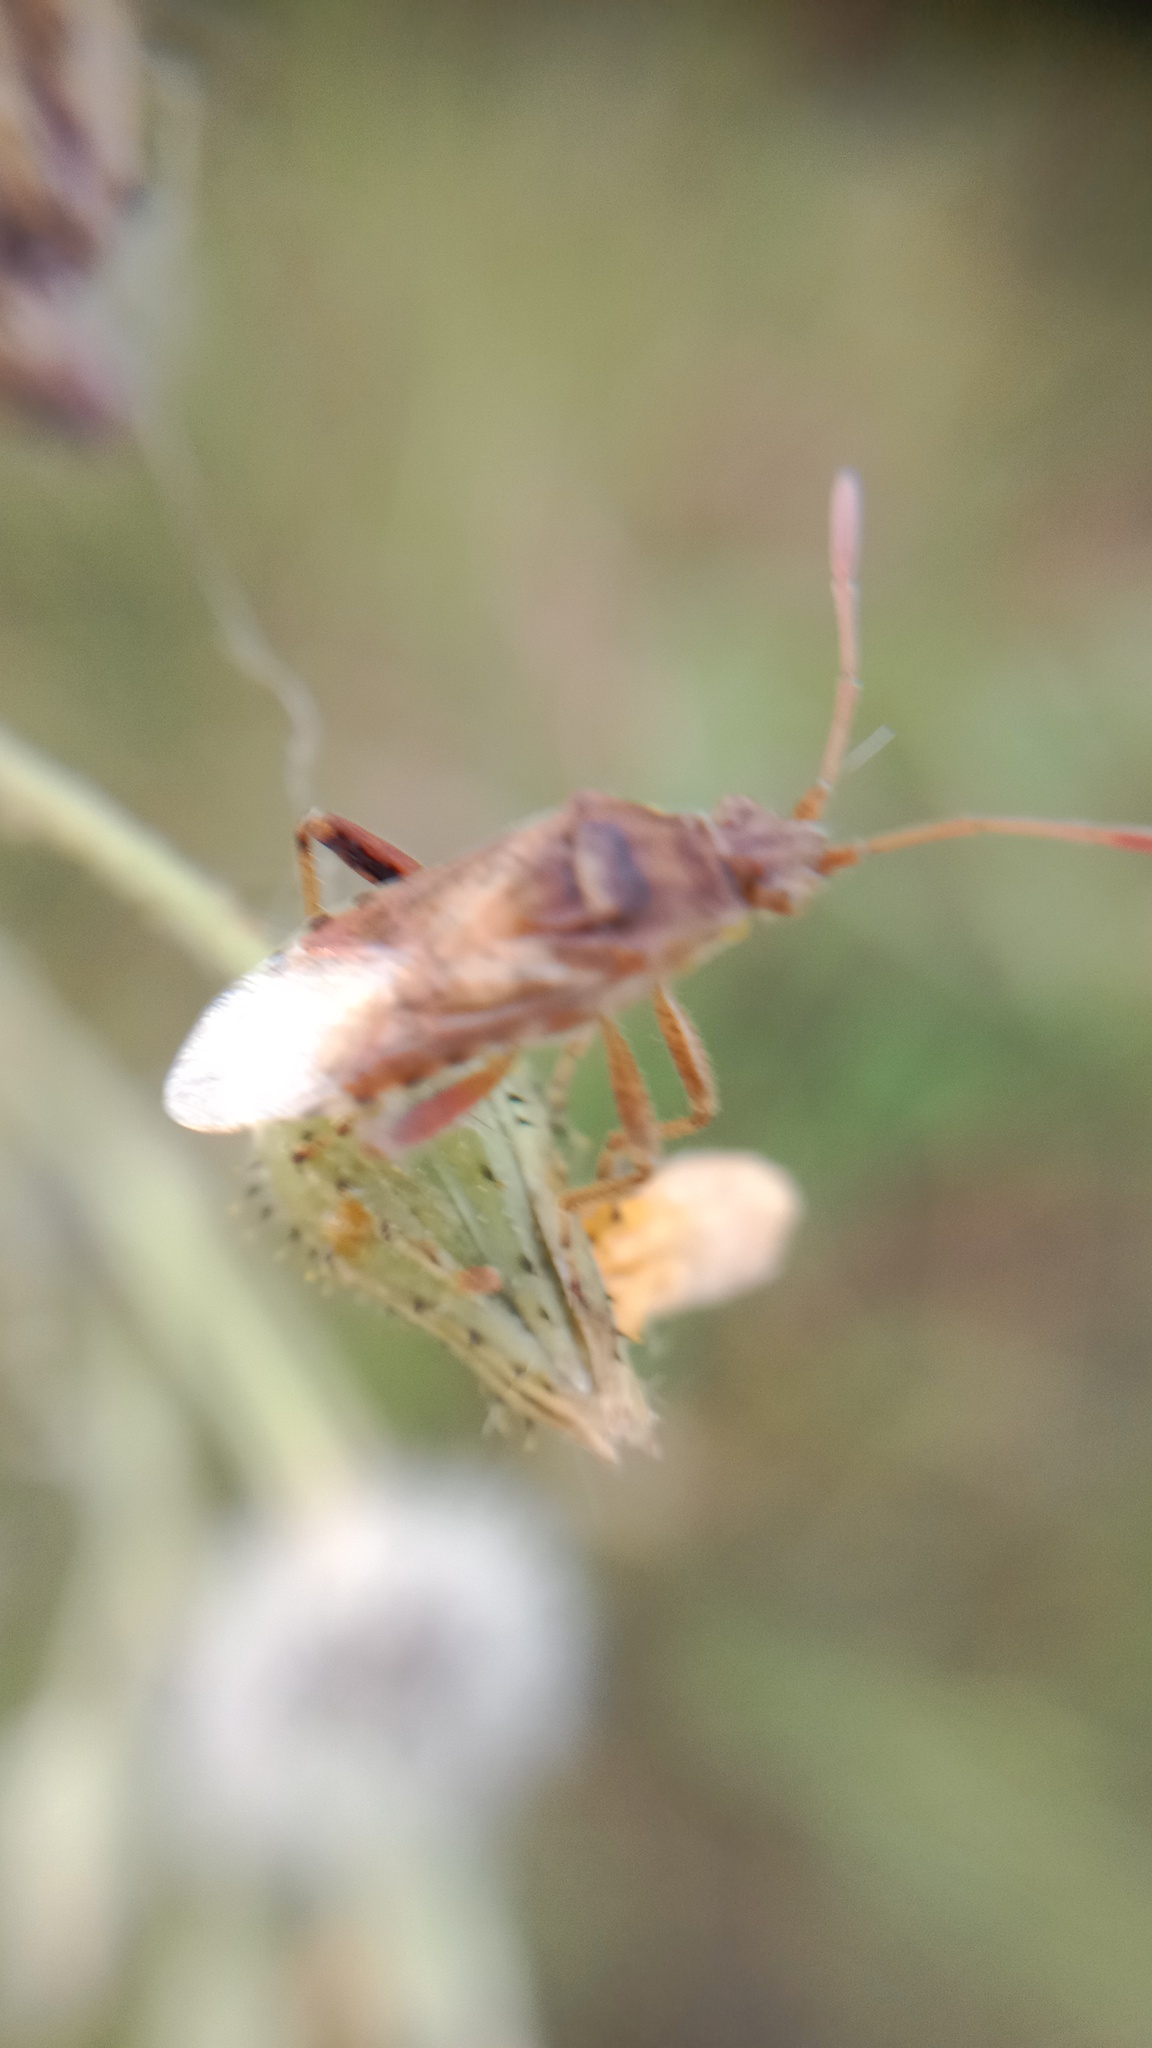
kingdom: Animalia
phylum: Arthropoda
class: Insecta
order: Hemiptera
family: Rhopalidae
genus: Liorhyssus
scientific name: Liorhyssus hyalinus
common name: Scentless plant bug
